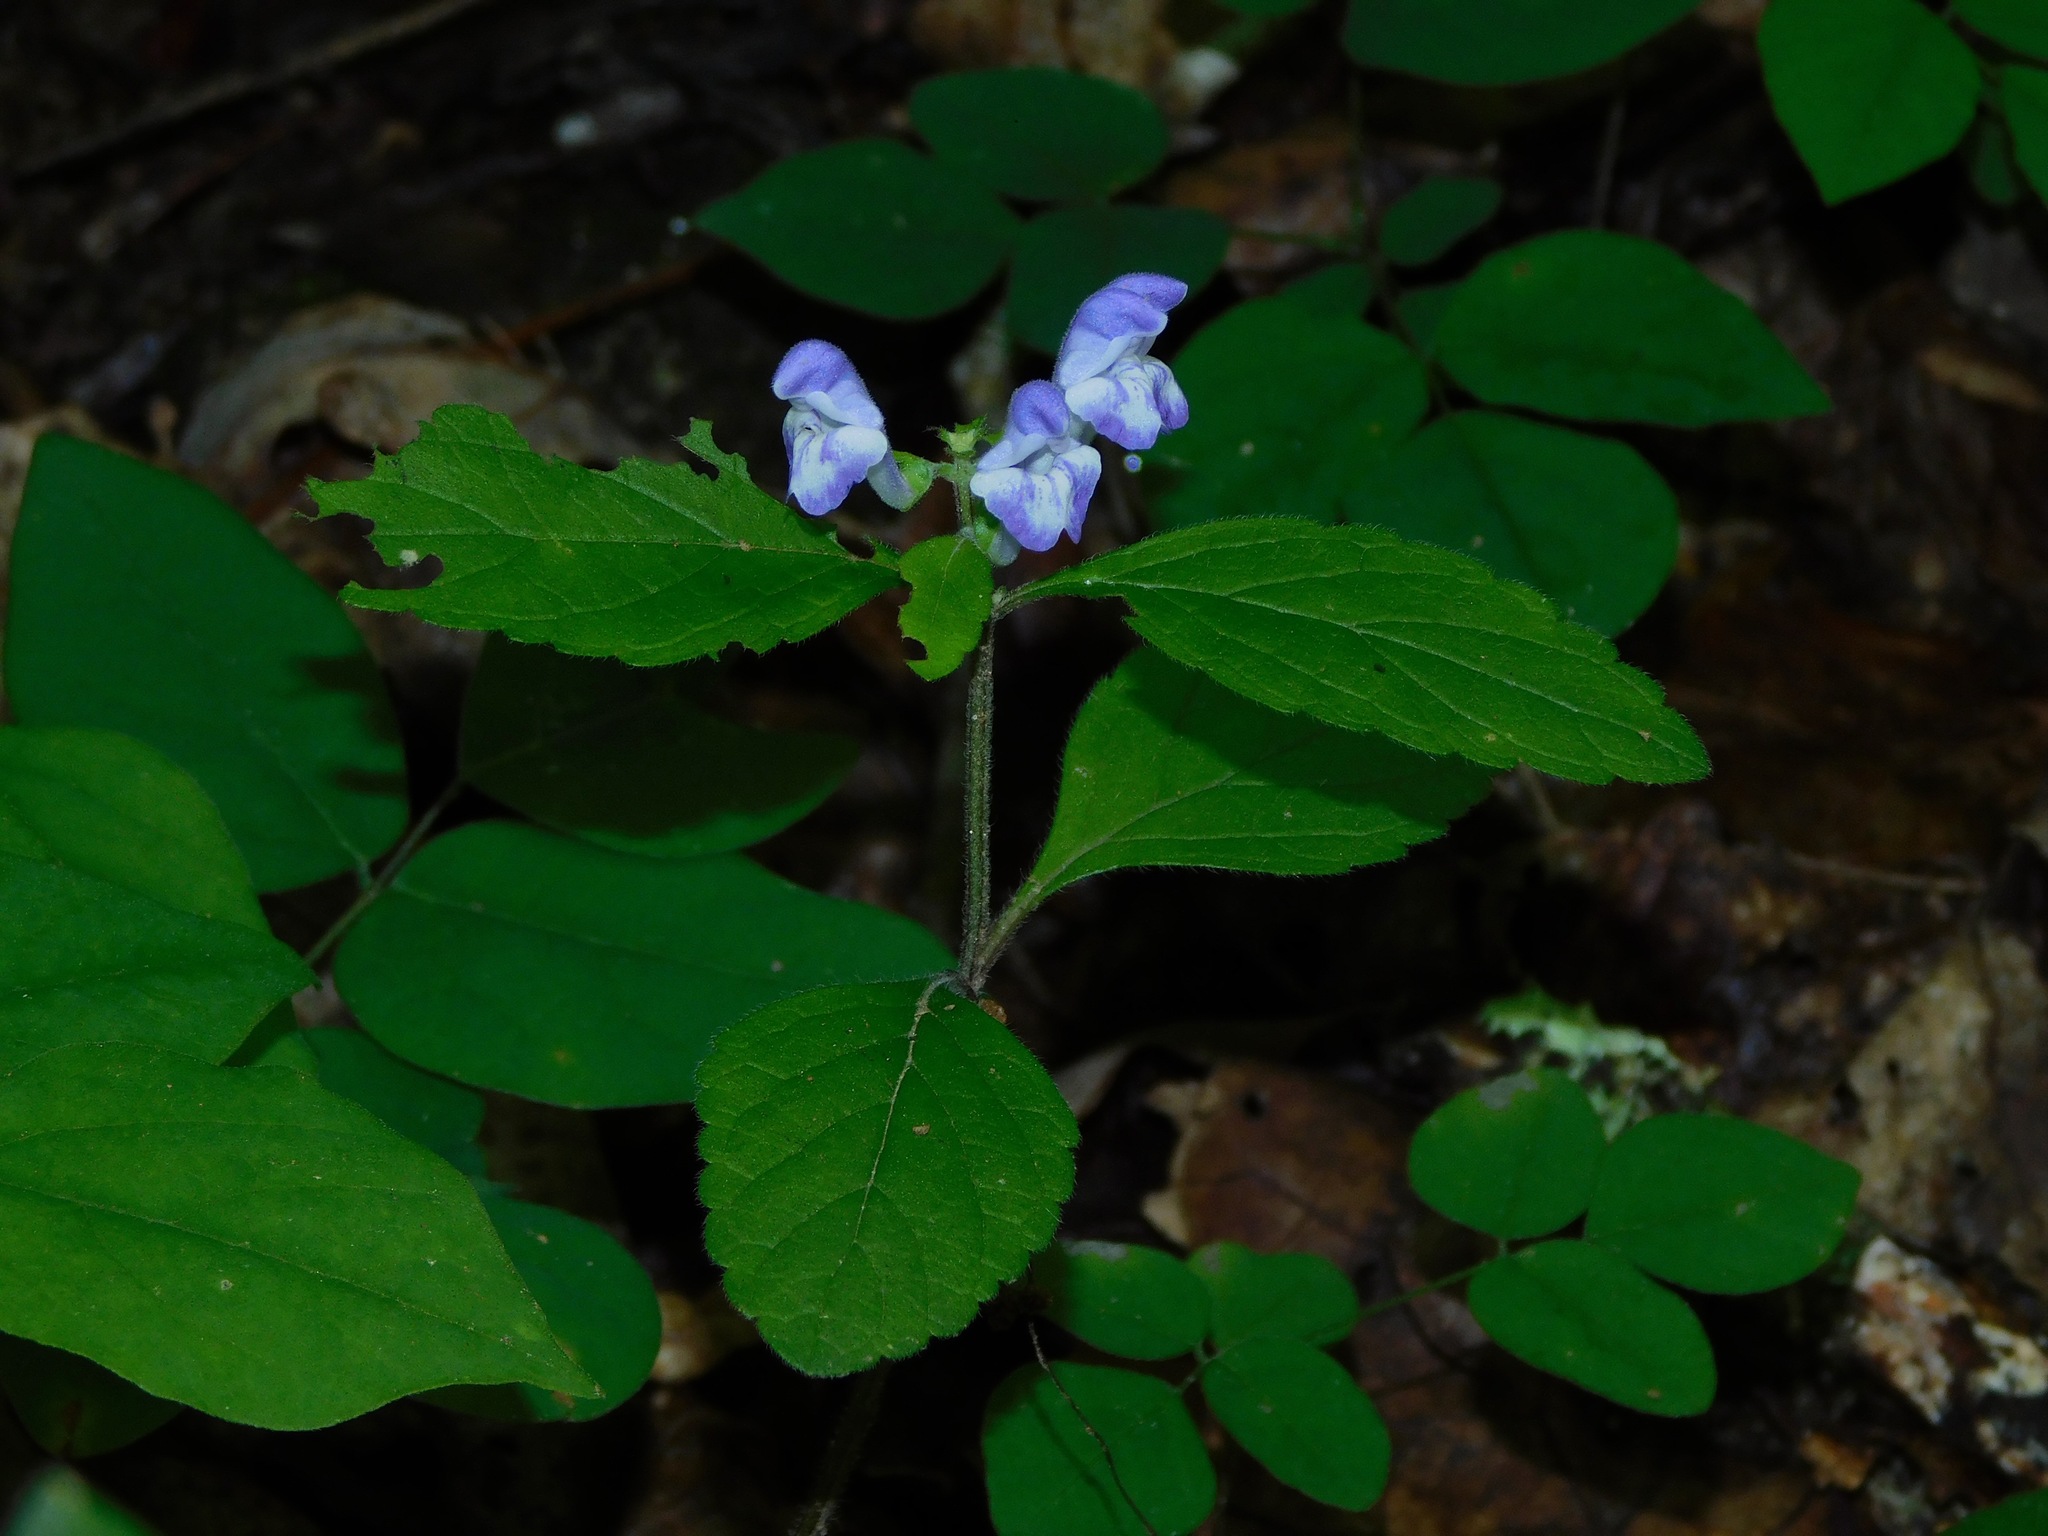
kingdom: Plantae
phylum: Tracheophyta
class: Magnoliopsida
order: Lamiales
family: Lamiaceae
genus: Scutellaria
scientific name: Scutellaria elliptica
